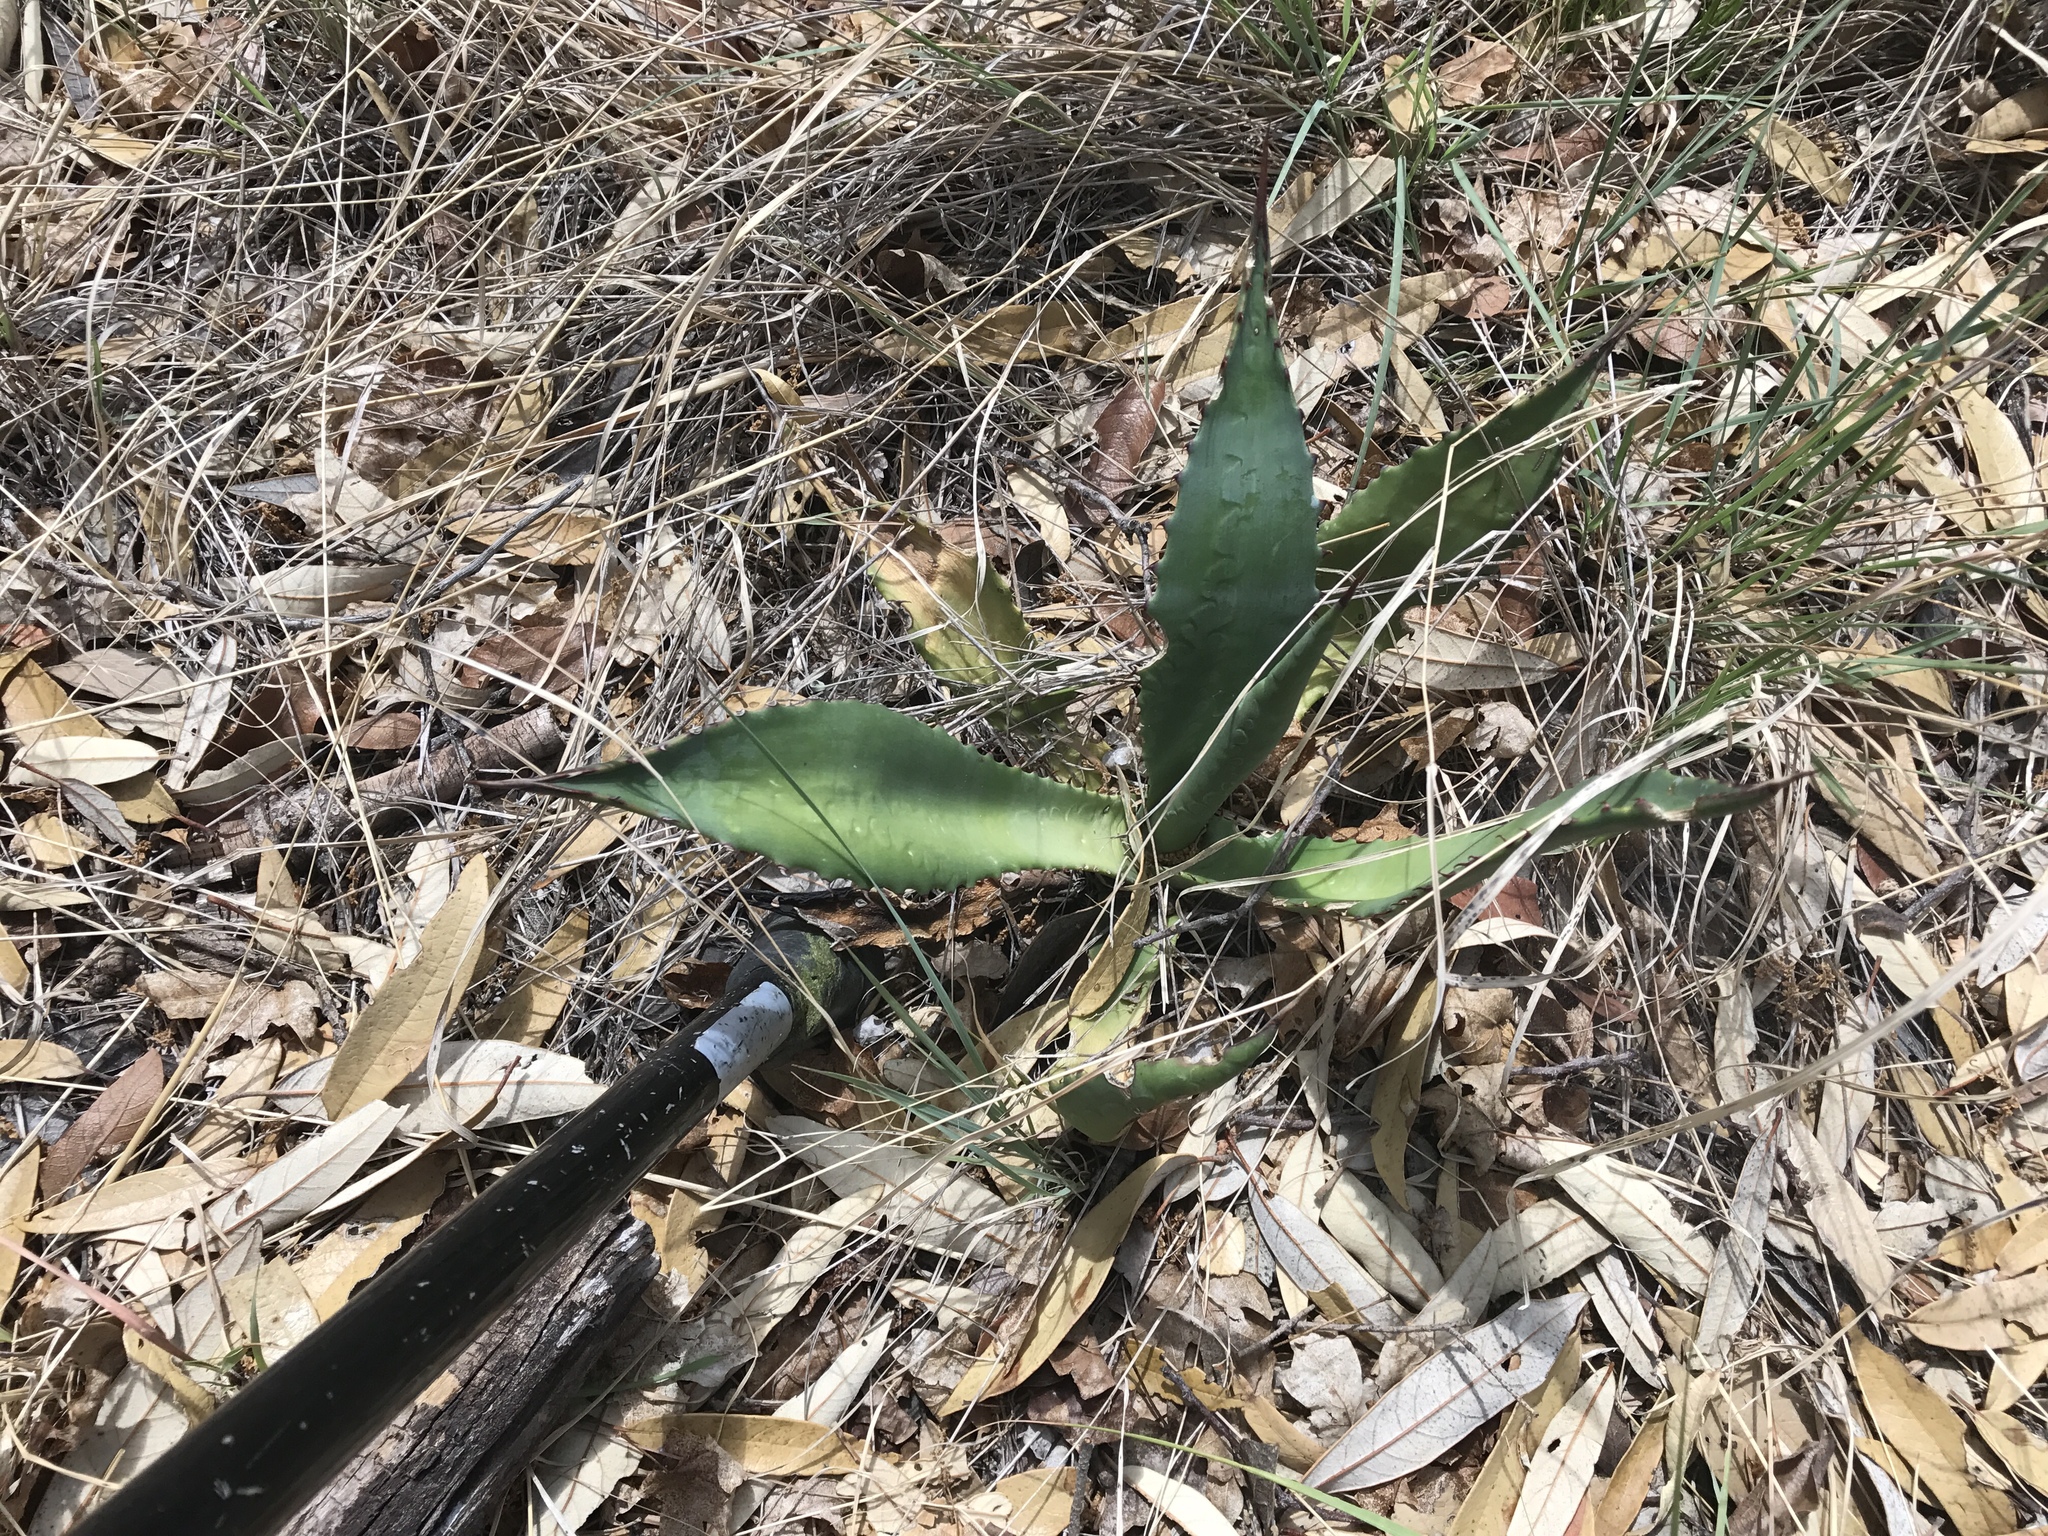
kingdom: Plantae
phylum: Tracheophyta
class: Liliopsida
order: Asparagales
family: Asparagaceae
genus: Agave
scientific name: Agave palmeri
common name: Palmer agave
